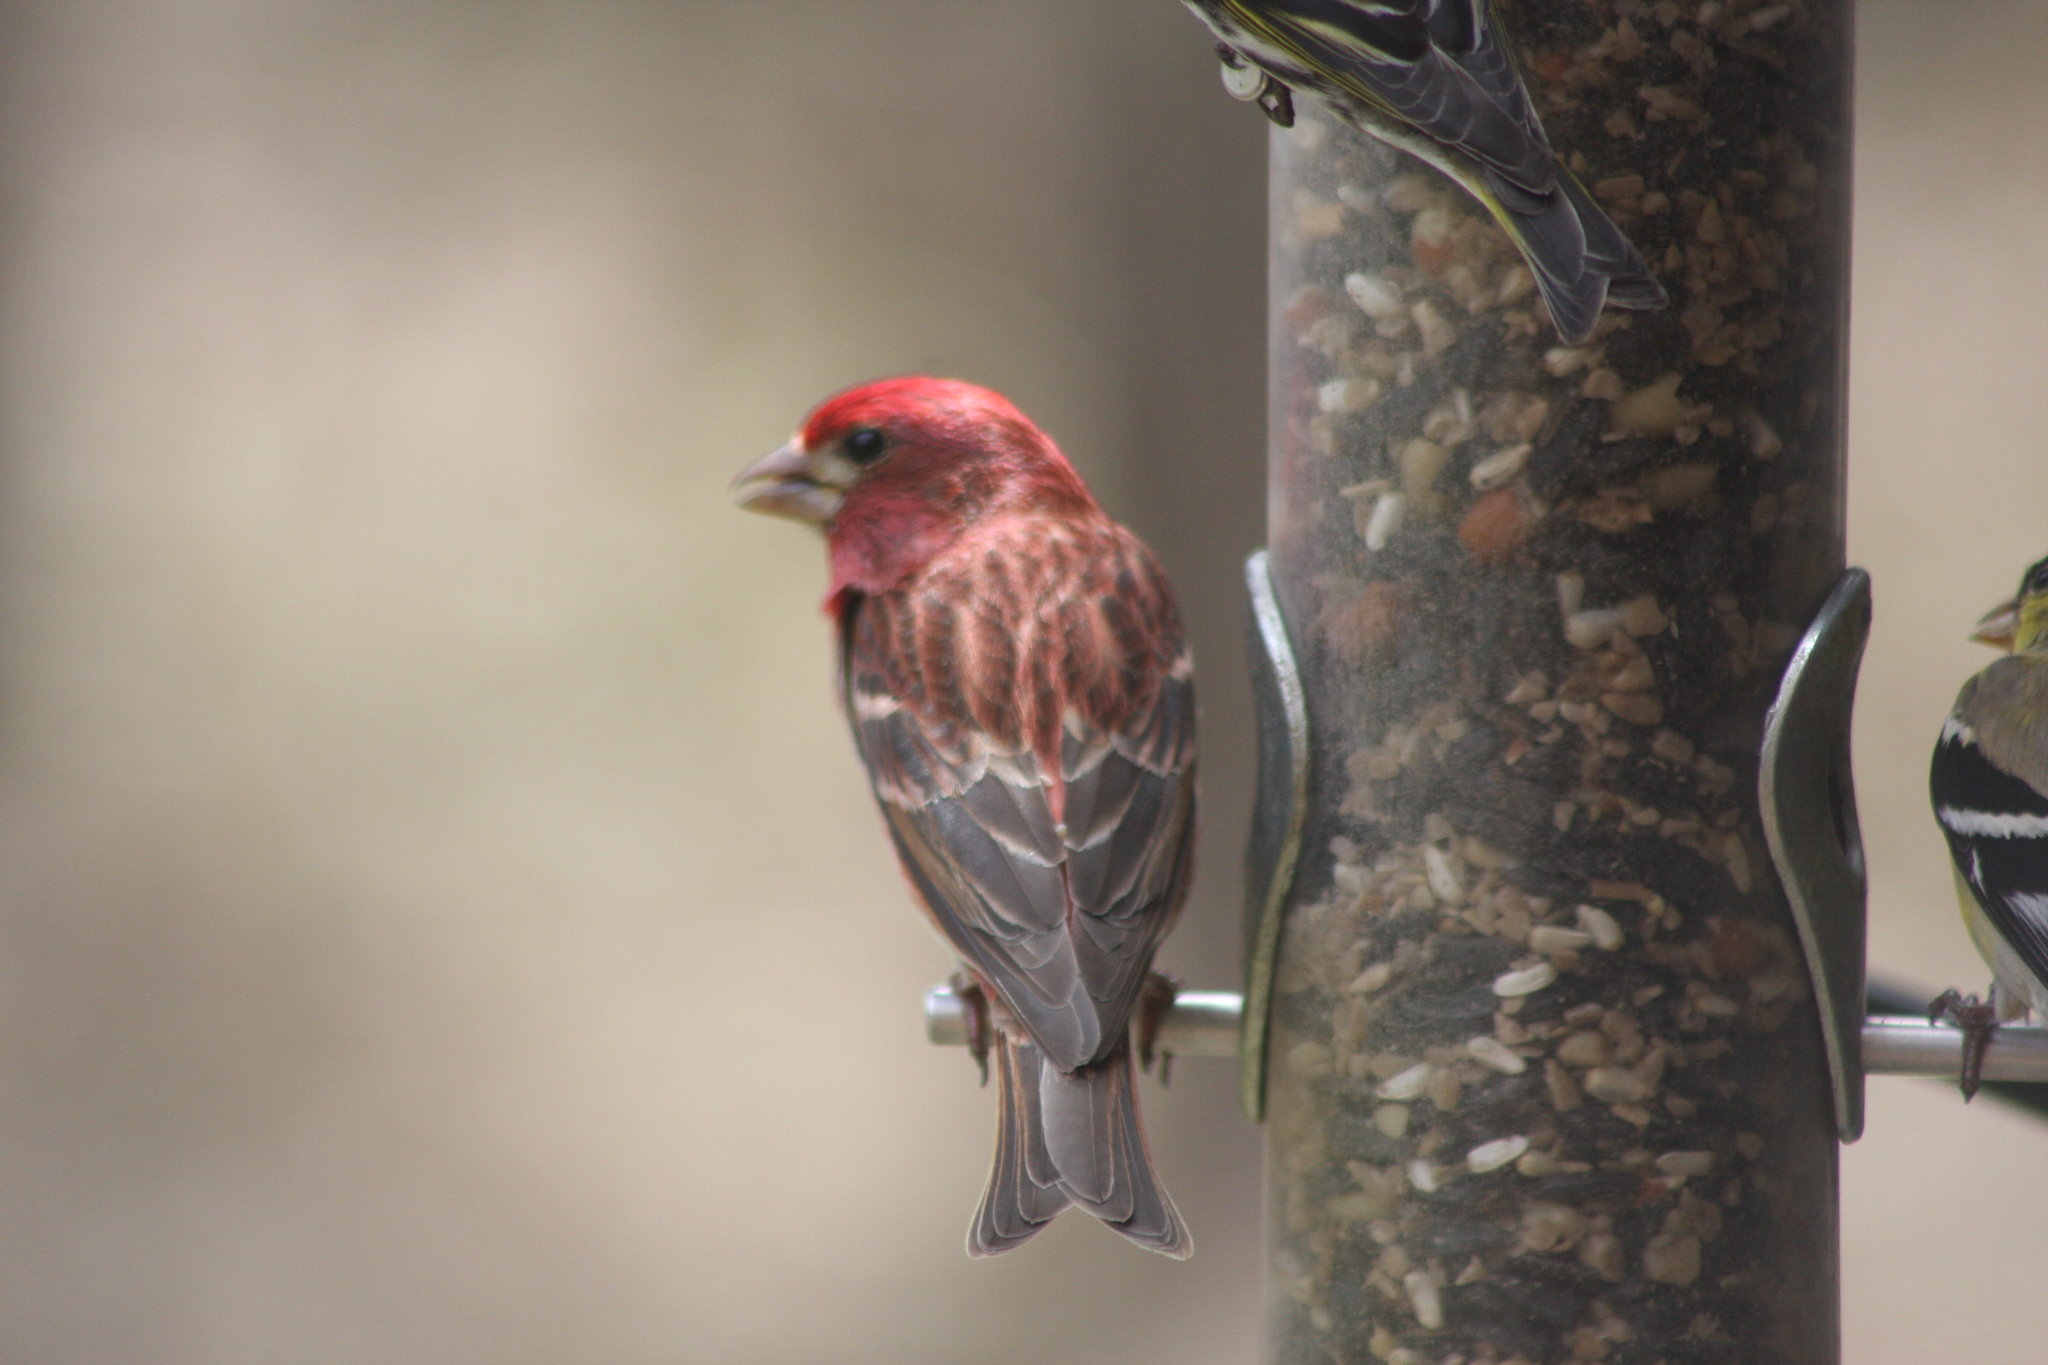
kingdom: Animalia
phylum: Chordata
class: Aves
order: Passeriformes
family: Fringillidae
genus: Haemorhous
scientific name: Haemorhous purpureus
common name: Purple finch
